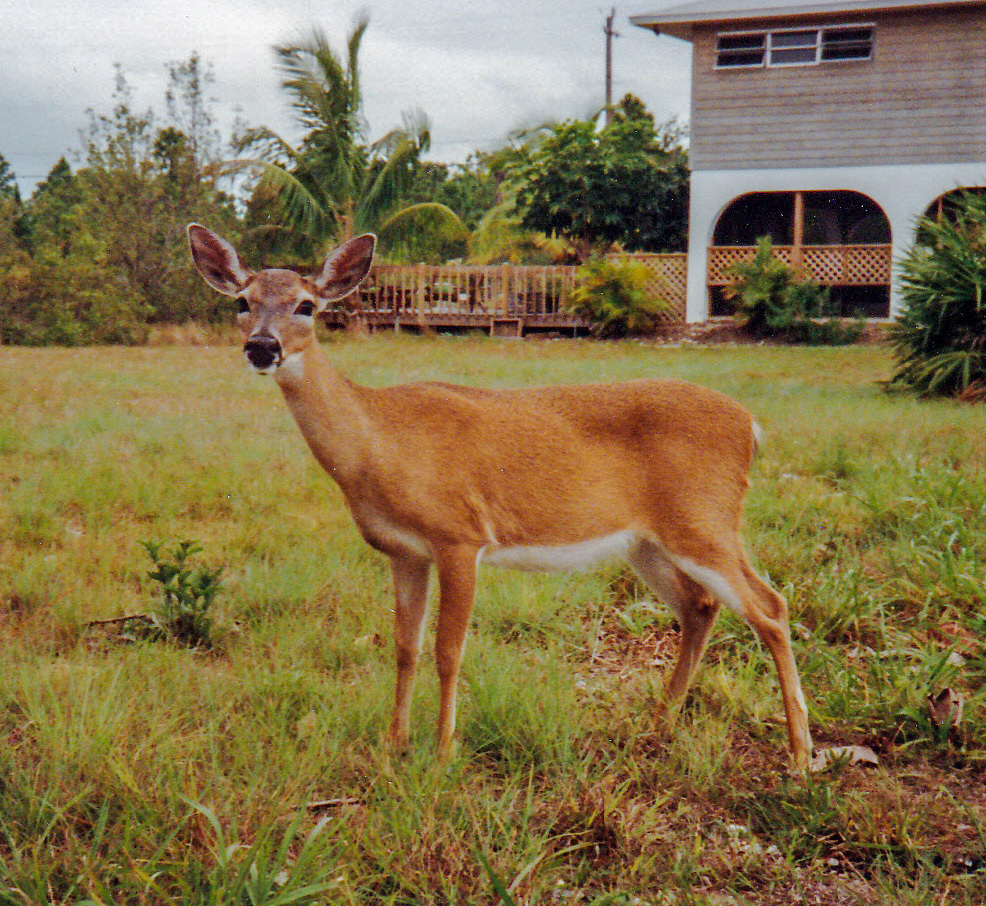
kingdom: Animalia
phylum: Chordata
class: Mammalia
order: Artiodactyla
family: Cervidae
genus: Odocoileus
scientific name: Odocoileus virginianus
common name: White-tailed deer
